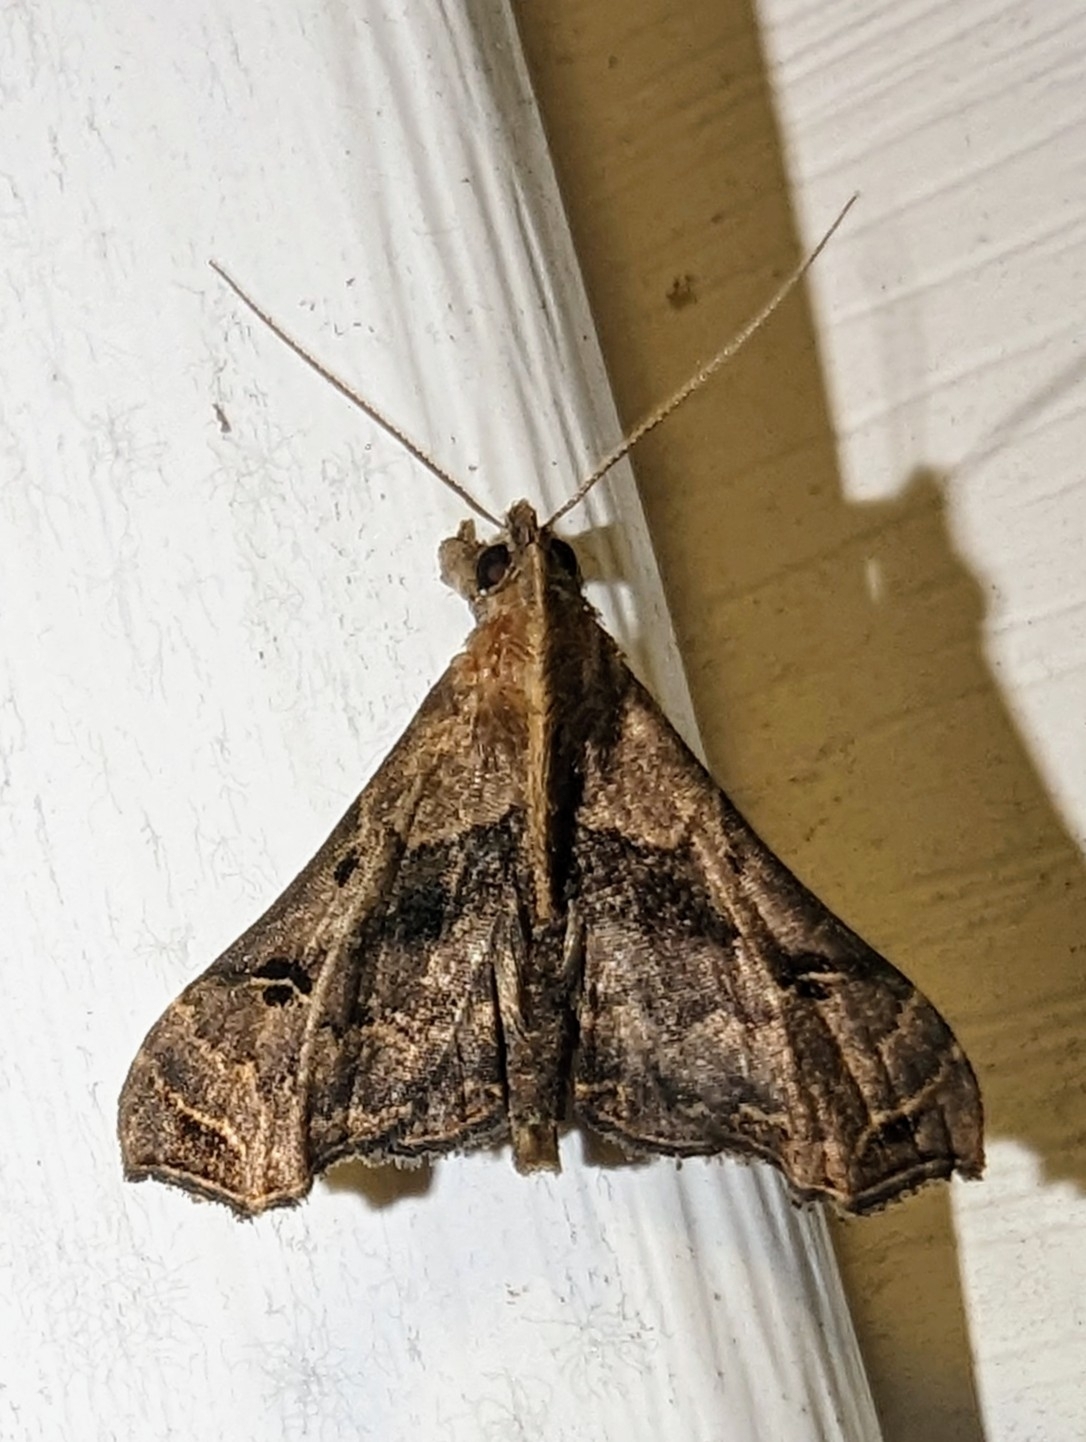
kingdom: Animalia
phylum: Arthropoda
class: Insecta
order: Lepidoptera
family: Erebidae
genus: Palthis
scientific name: Palthis asopialis
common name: Faint-spotted palthis moth
